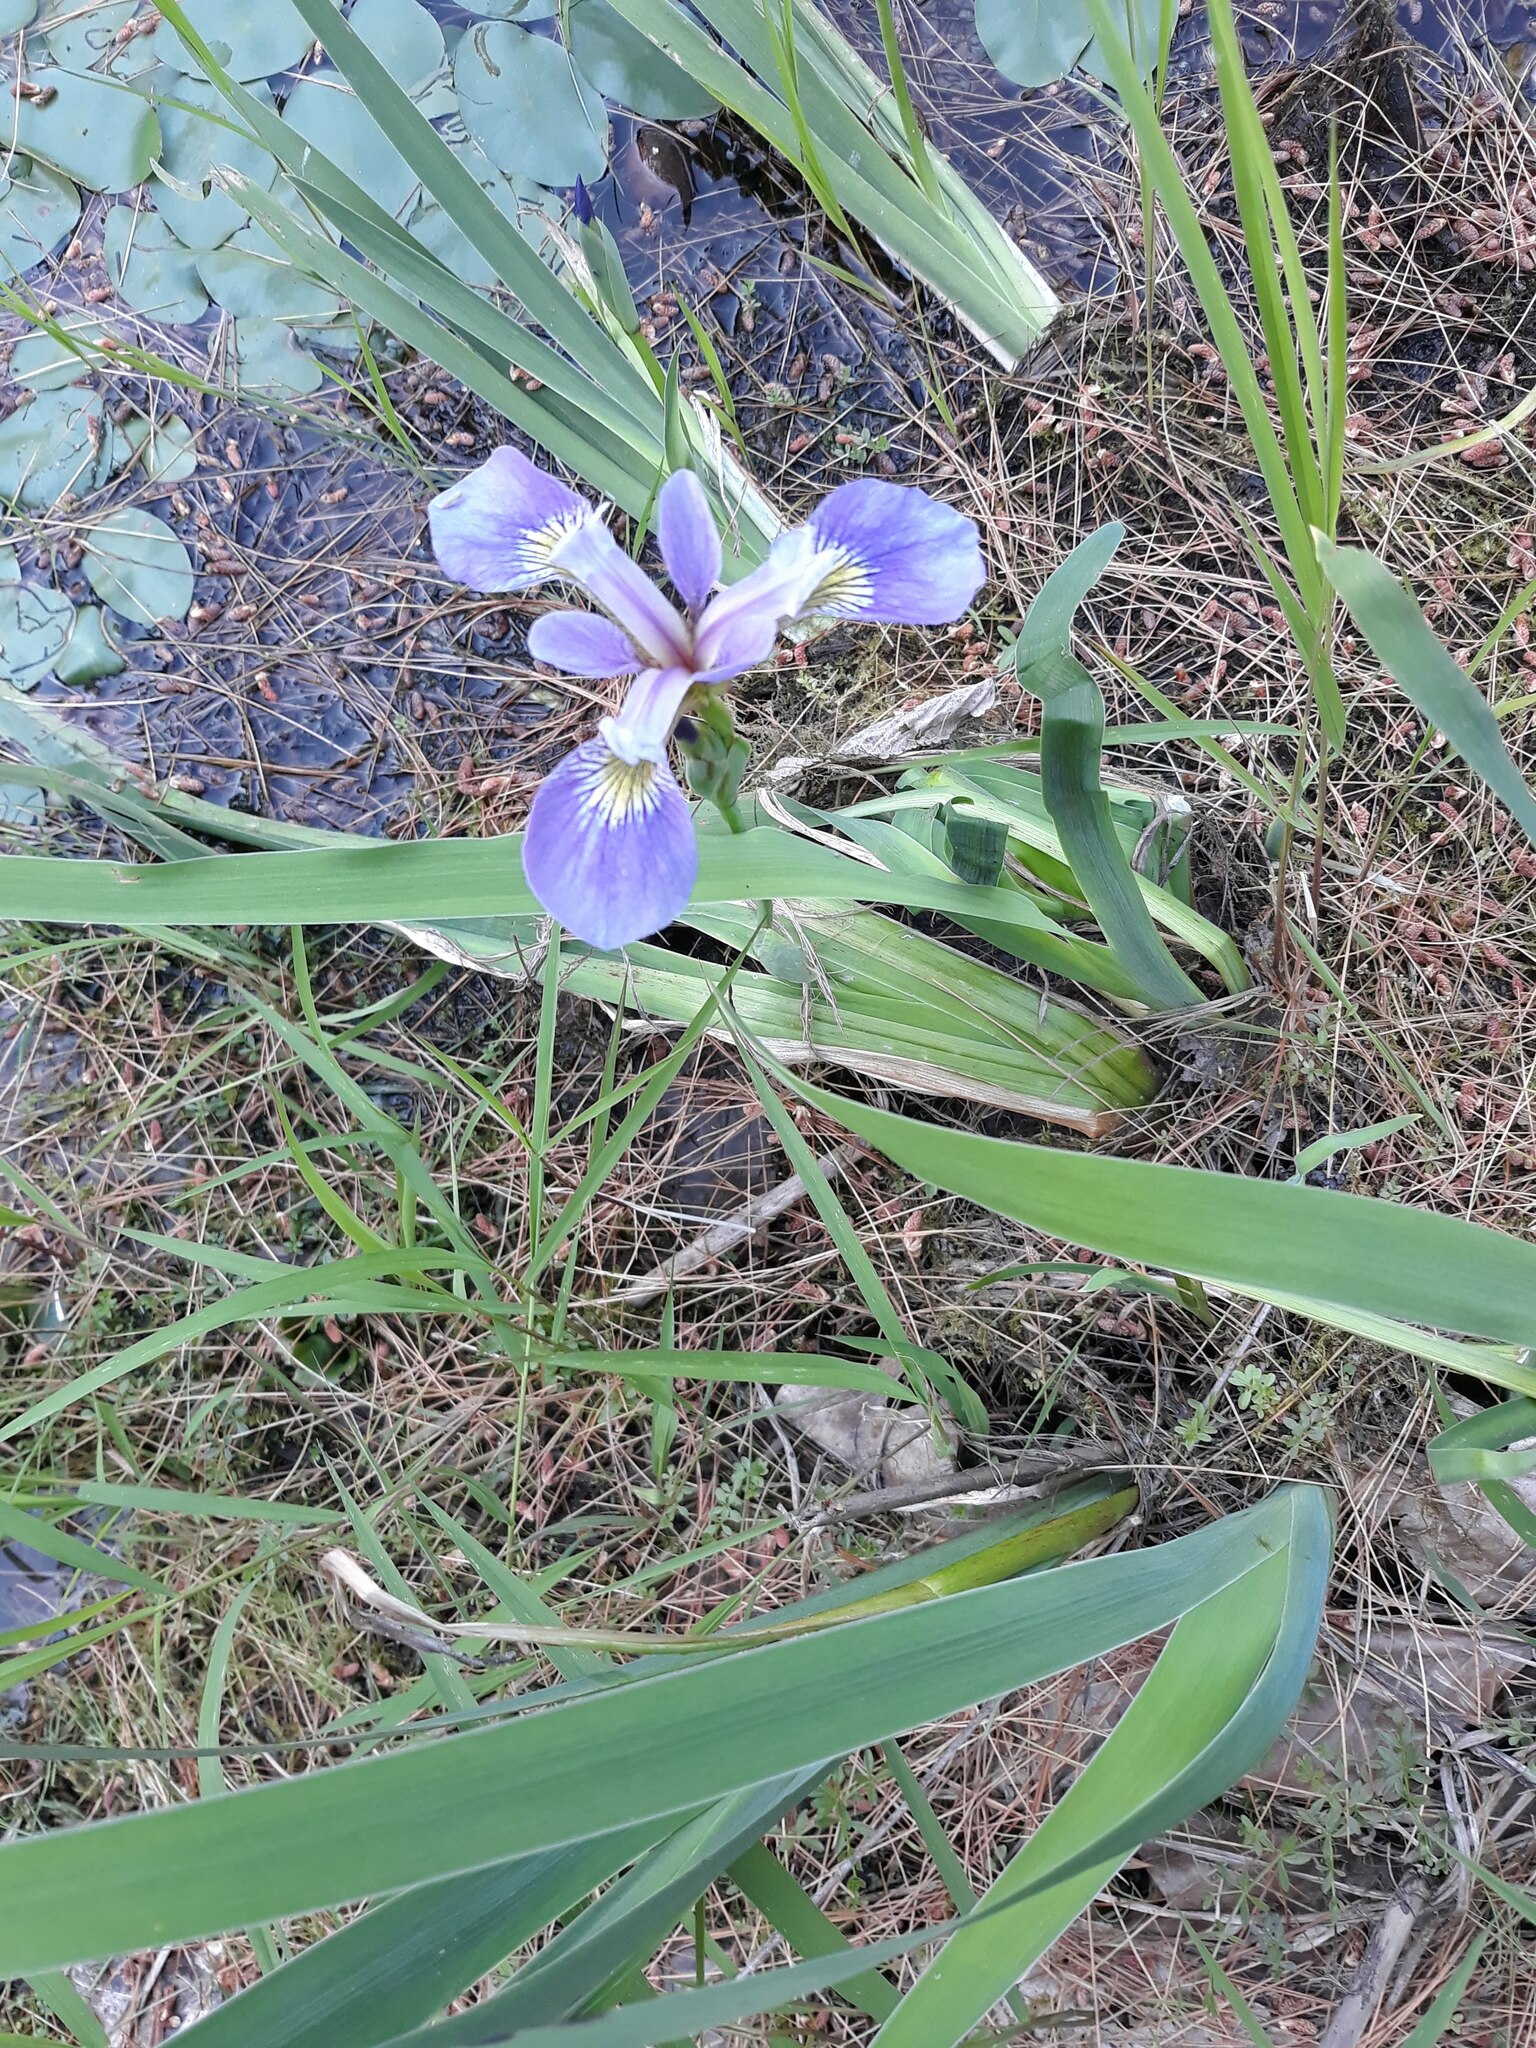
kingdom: Plantae
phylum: Tracheophyta
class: Liliopsida
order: Asparagales
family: Iridaceae
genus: Iris
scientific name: Iris versicolor
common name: Purple iris
